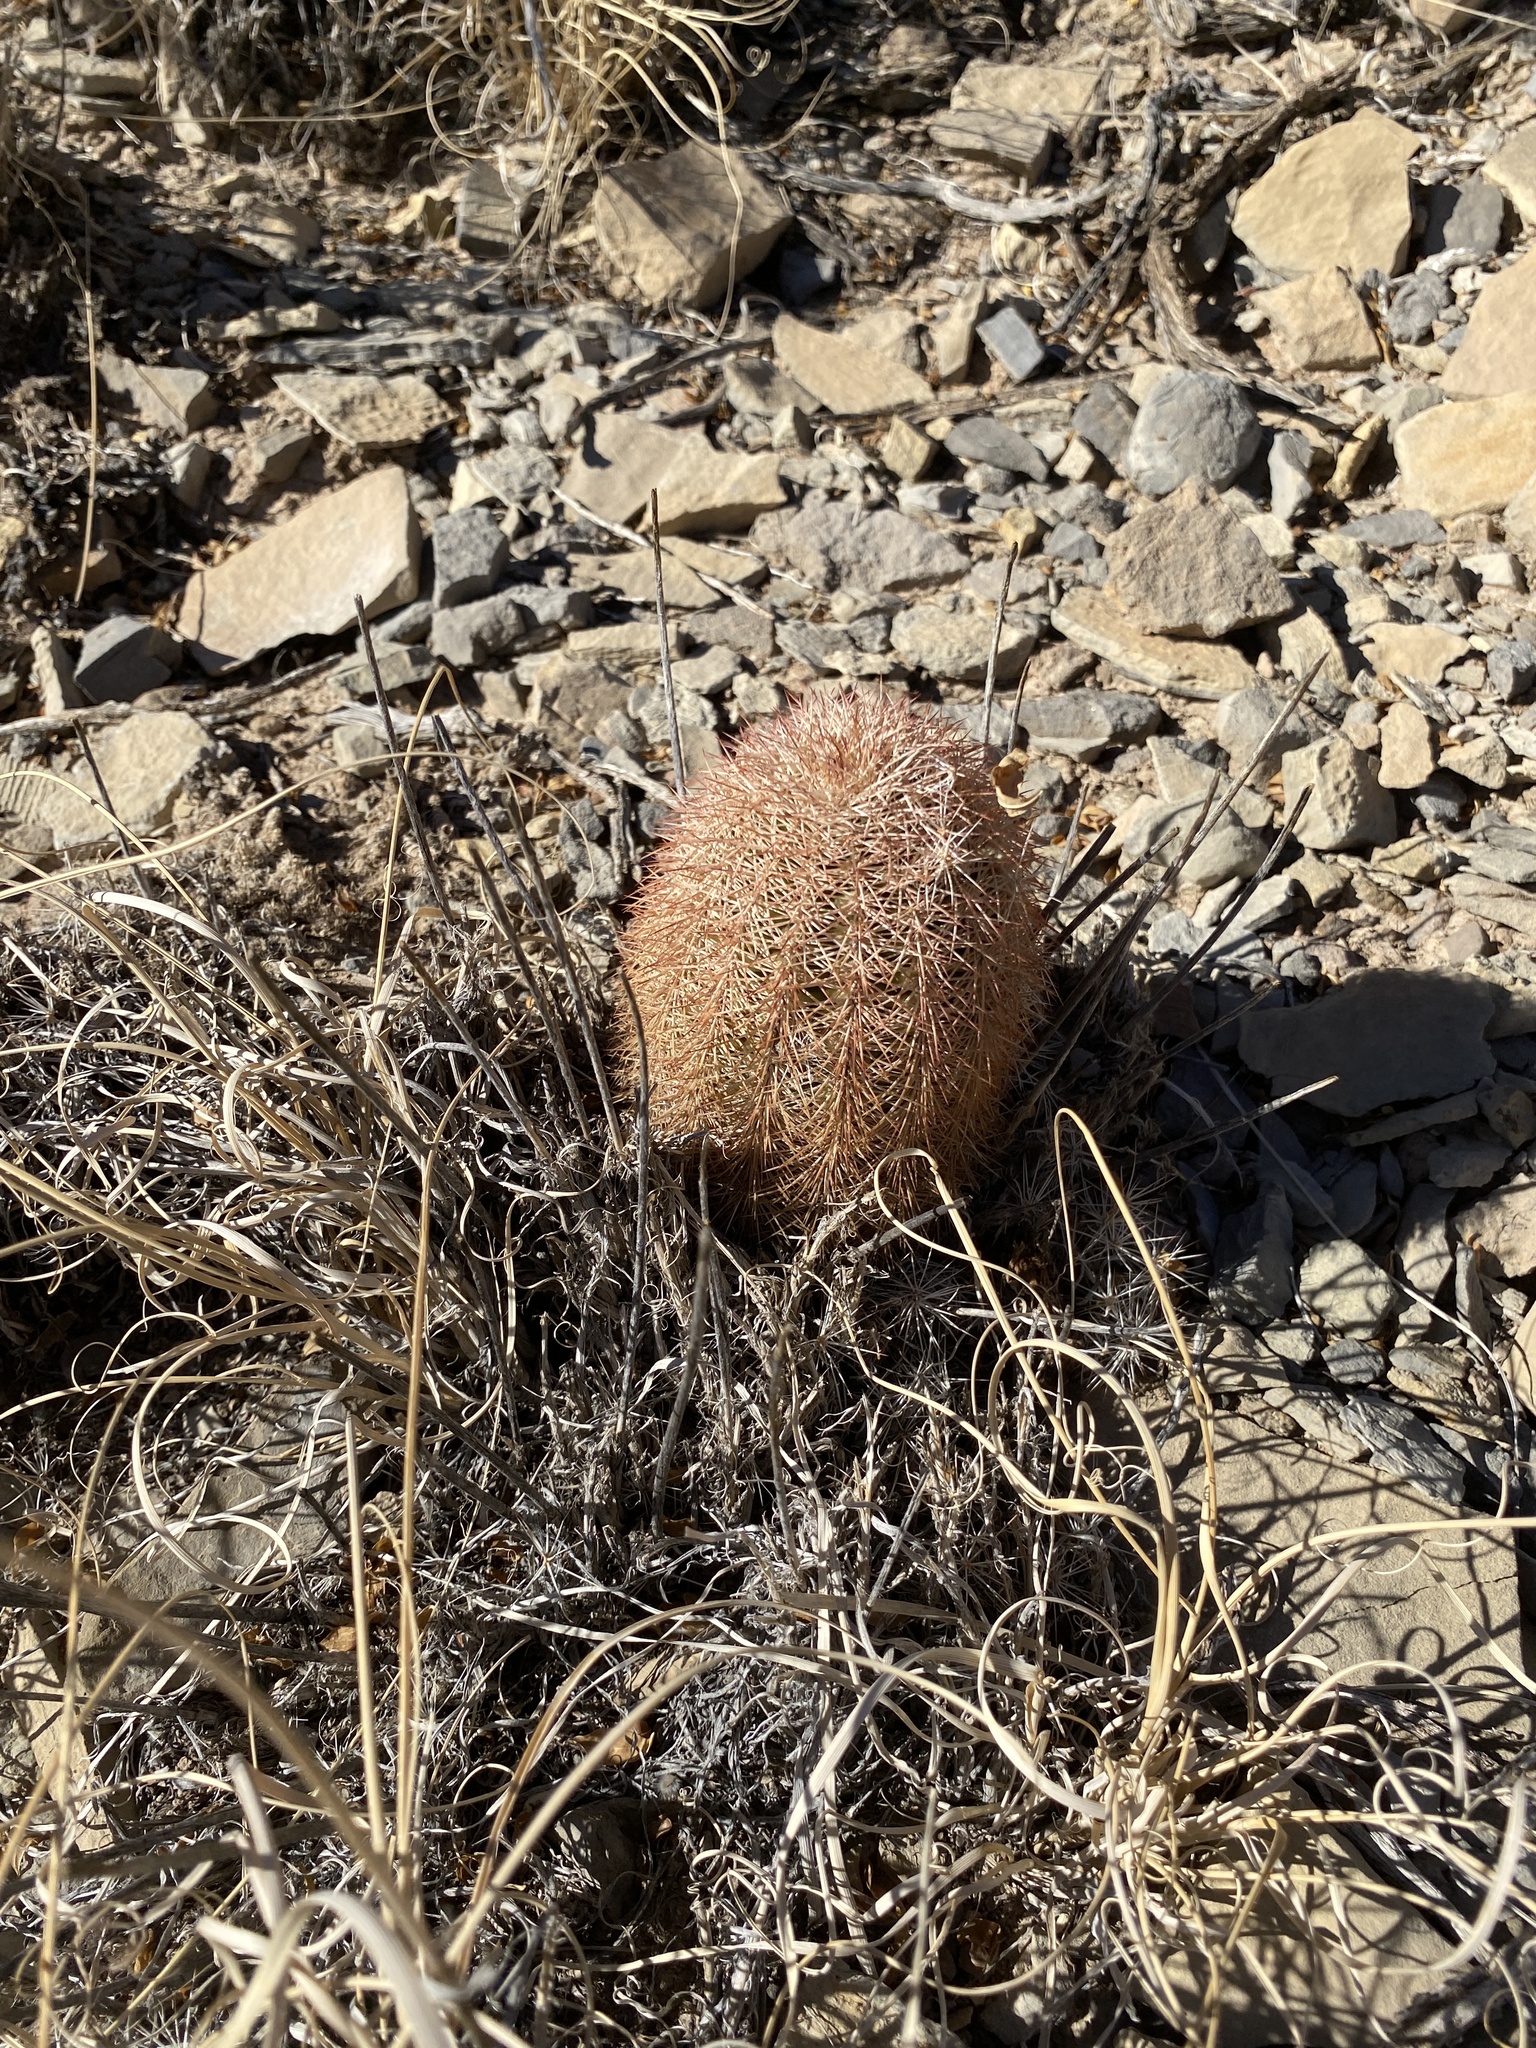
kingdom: Plantae
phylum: Tracheophyta
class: Magnoliopsida
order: Caryophyllales
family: Cactaceae
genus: Echinocereus
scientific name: Echinocereus dasyacanthus
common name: Spiny hedgehog cactus
